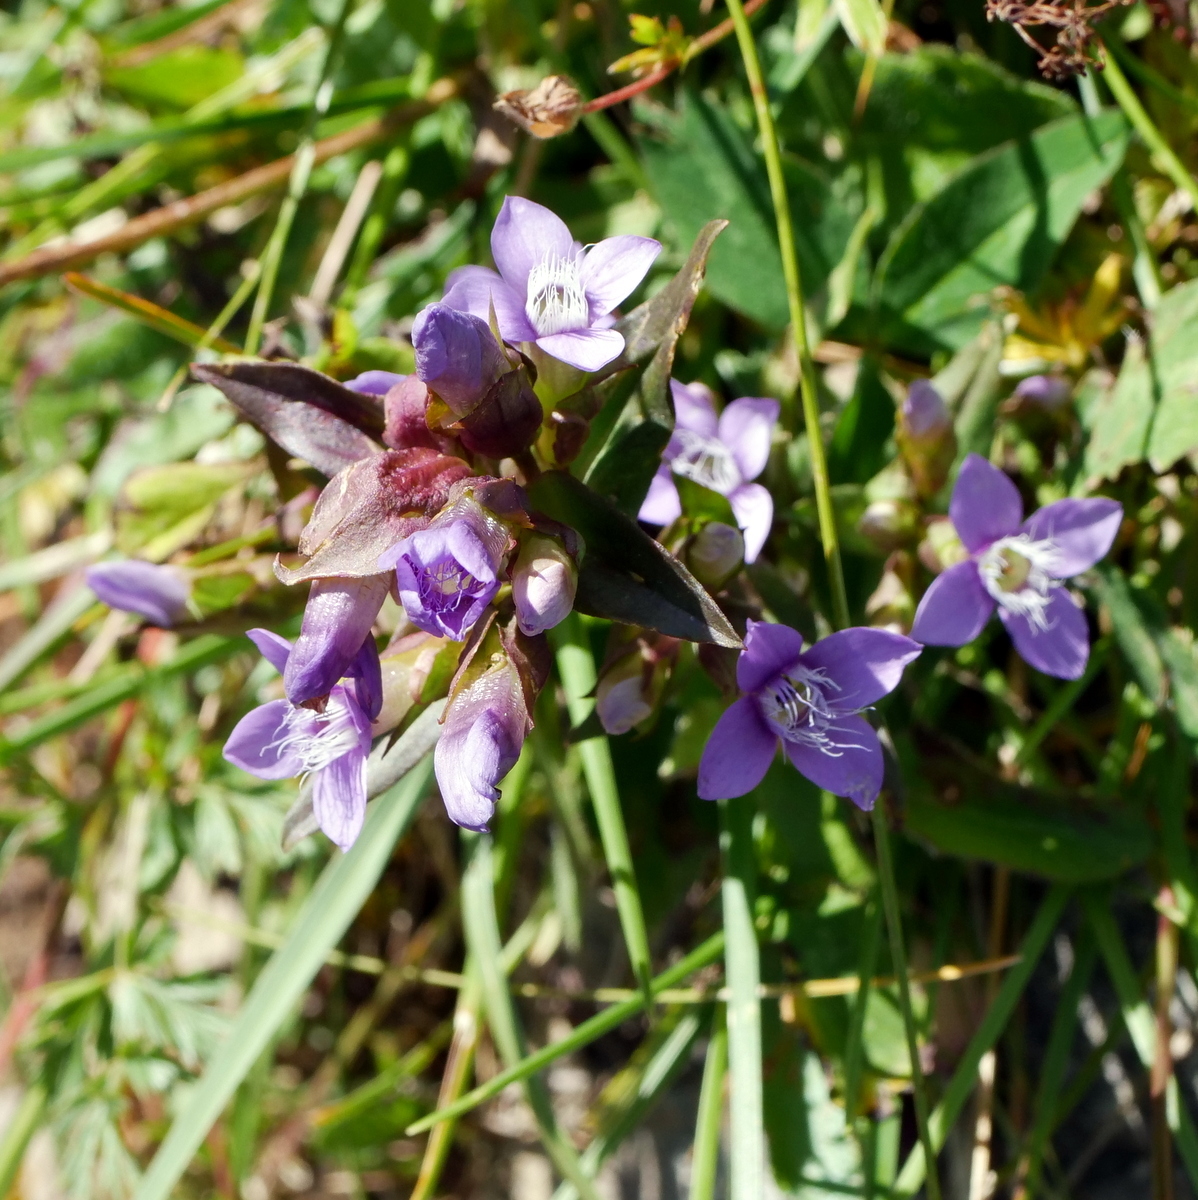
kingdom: Plantae
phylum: Tracheophyta
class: Magnoliopsida
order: Gentianales
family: Gentianaceae
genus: Gentianella
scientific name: Gentianella campestris
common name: Field gentian
